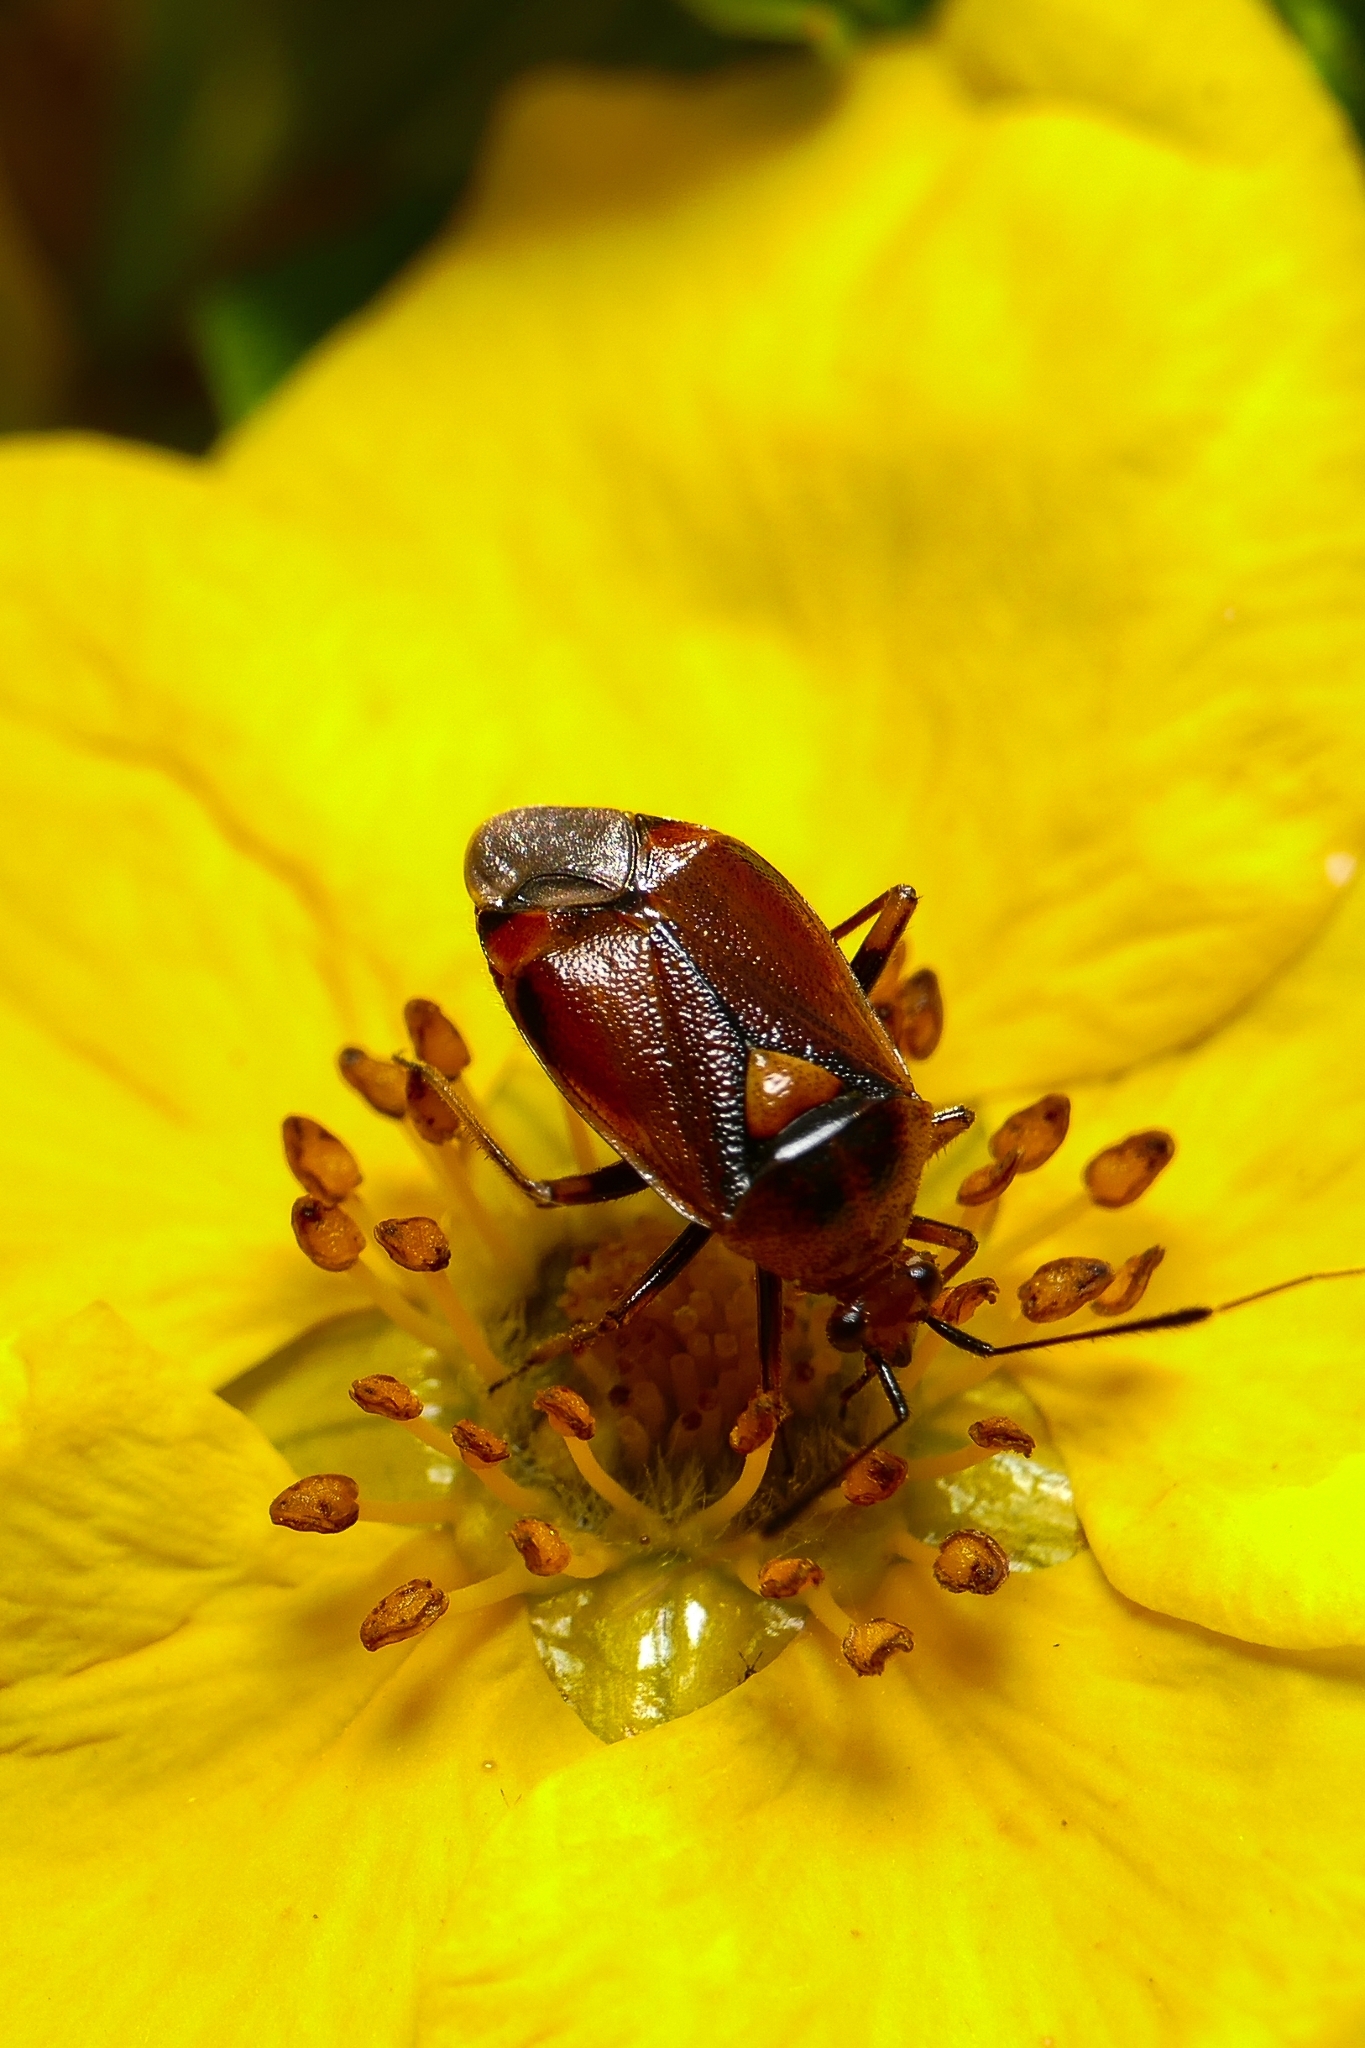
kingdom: Animalia
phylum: Arthropoda
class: Insecta
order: Hemiptera
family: Miridae
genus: Deraeocoris
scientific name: Deraeocoris ruber
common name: Plant bug
